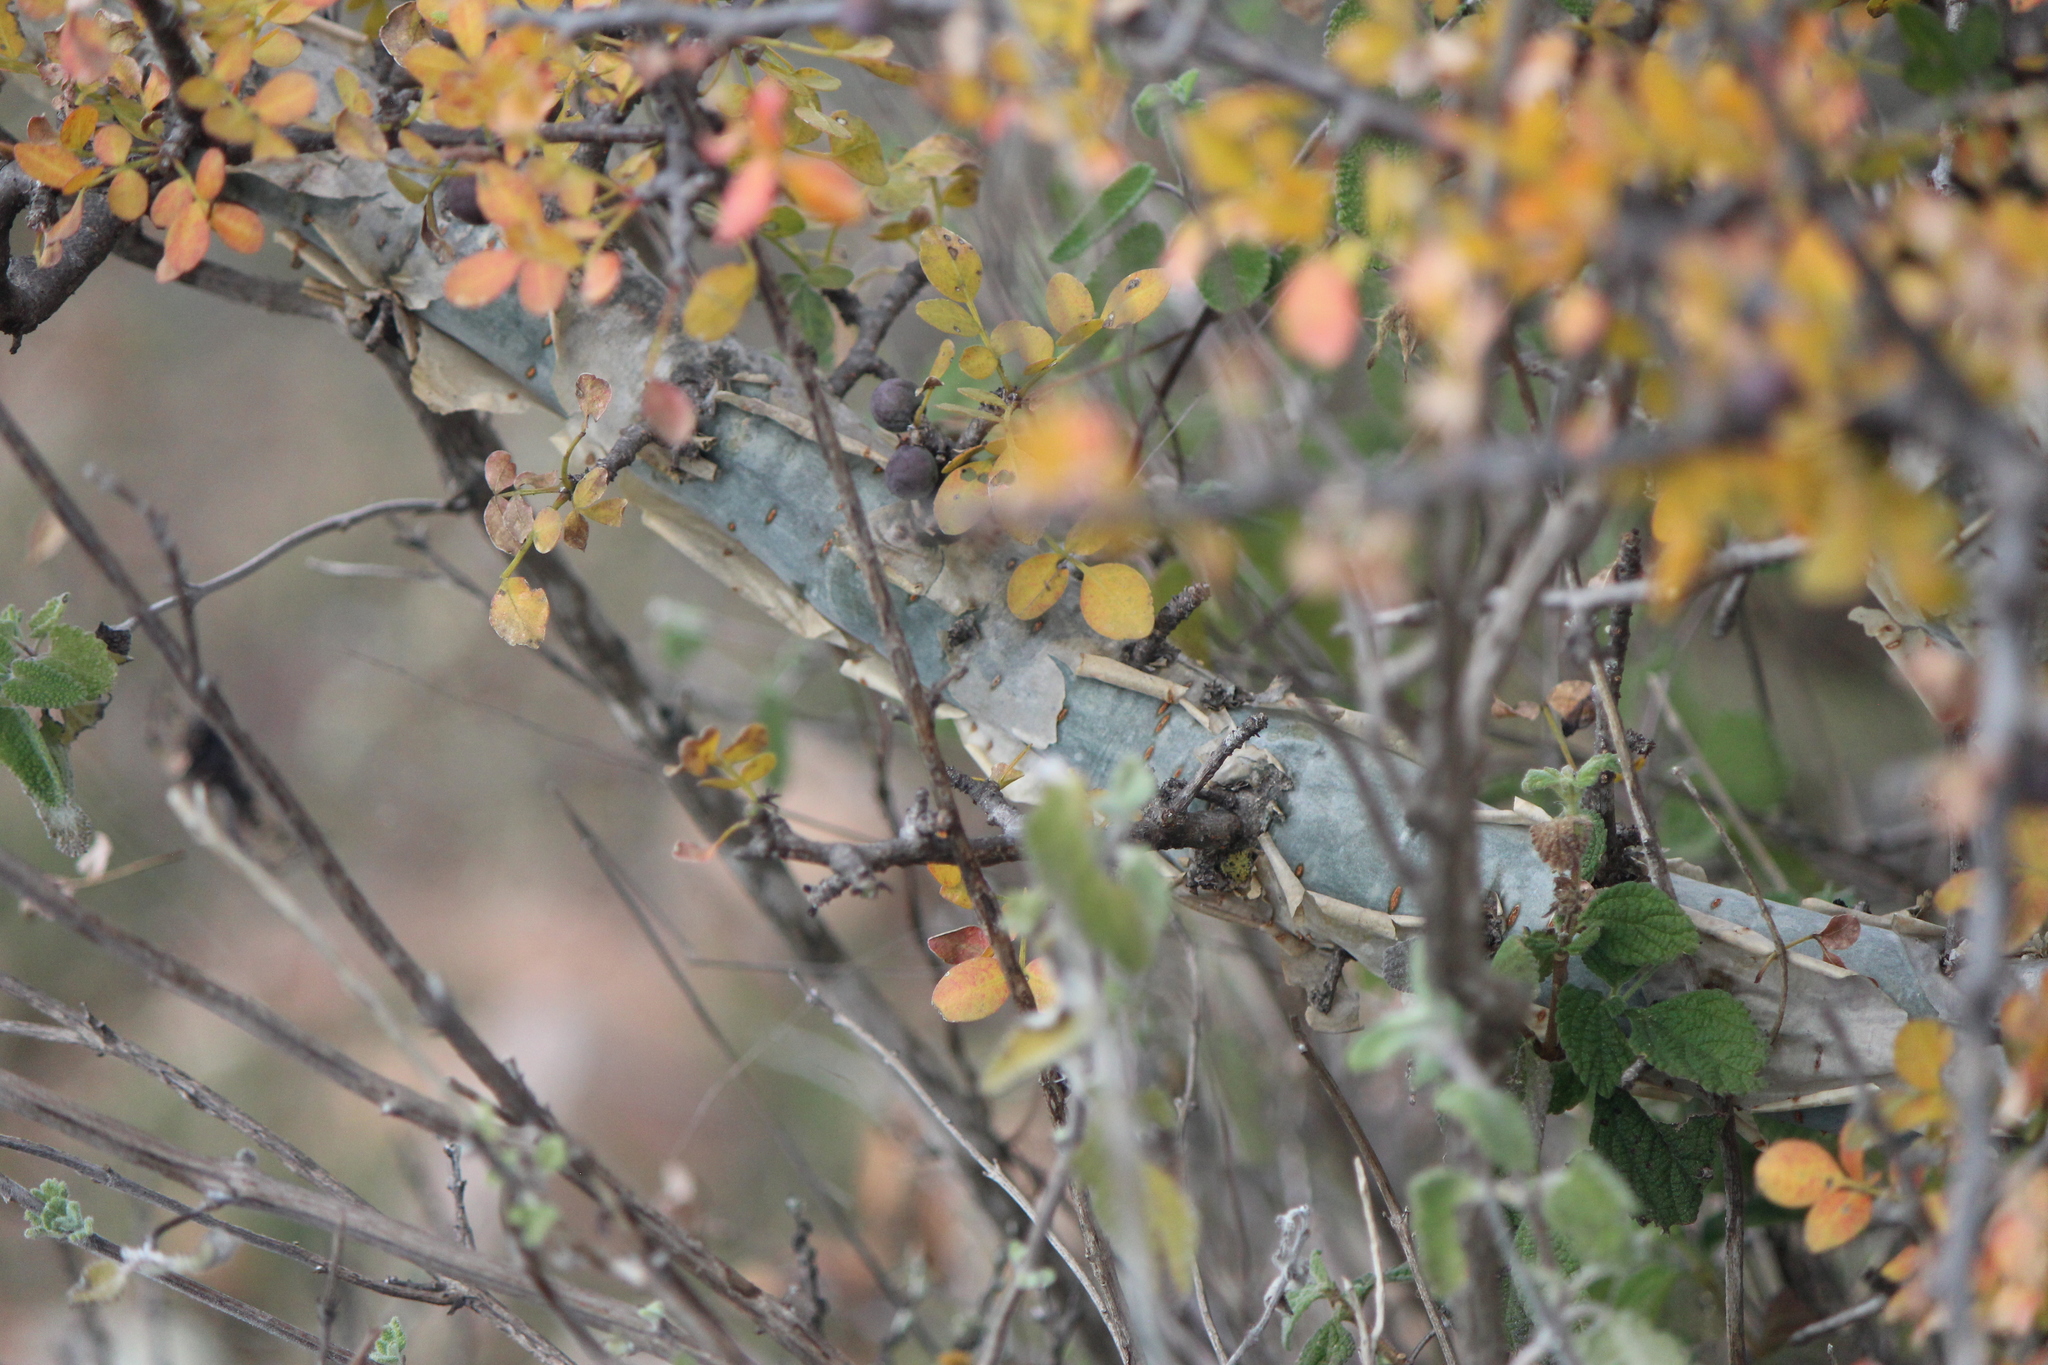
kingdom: Plantae
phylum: Tracheophyta
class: Magnoliopsida
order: Sapindales
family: Burseraceae
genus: Bursera
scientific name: Bursera fagaroides
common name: Elephant tree
